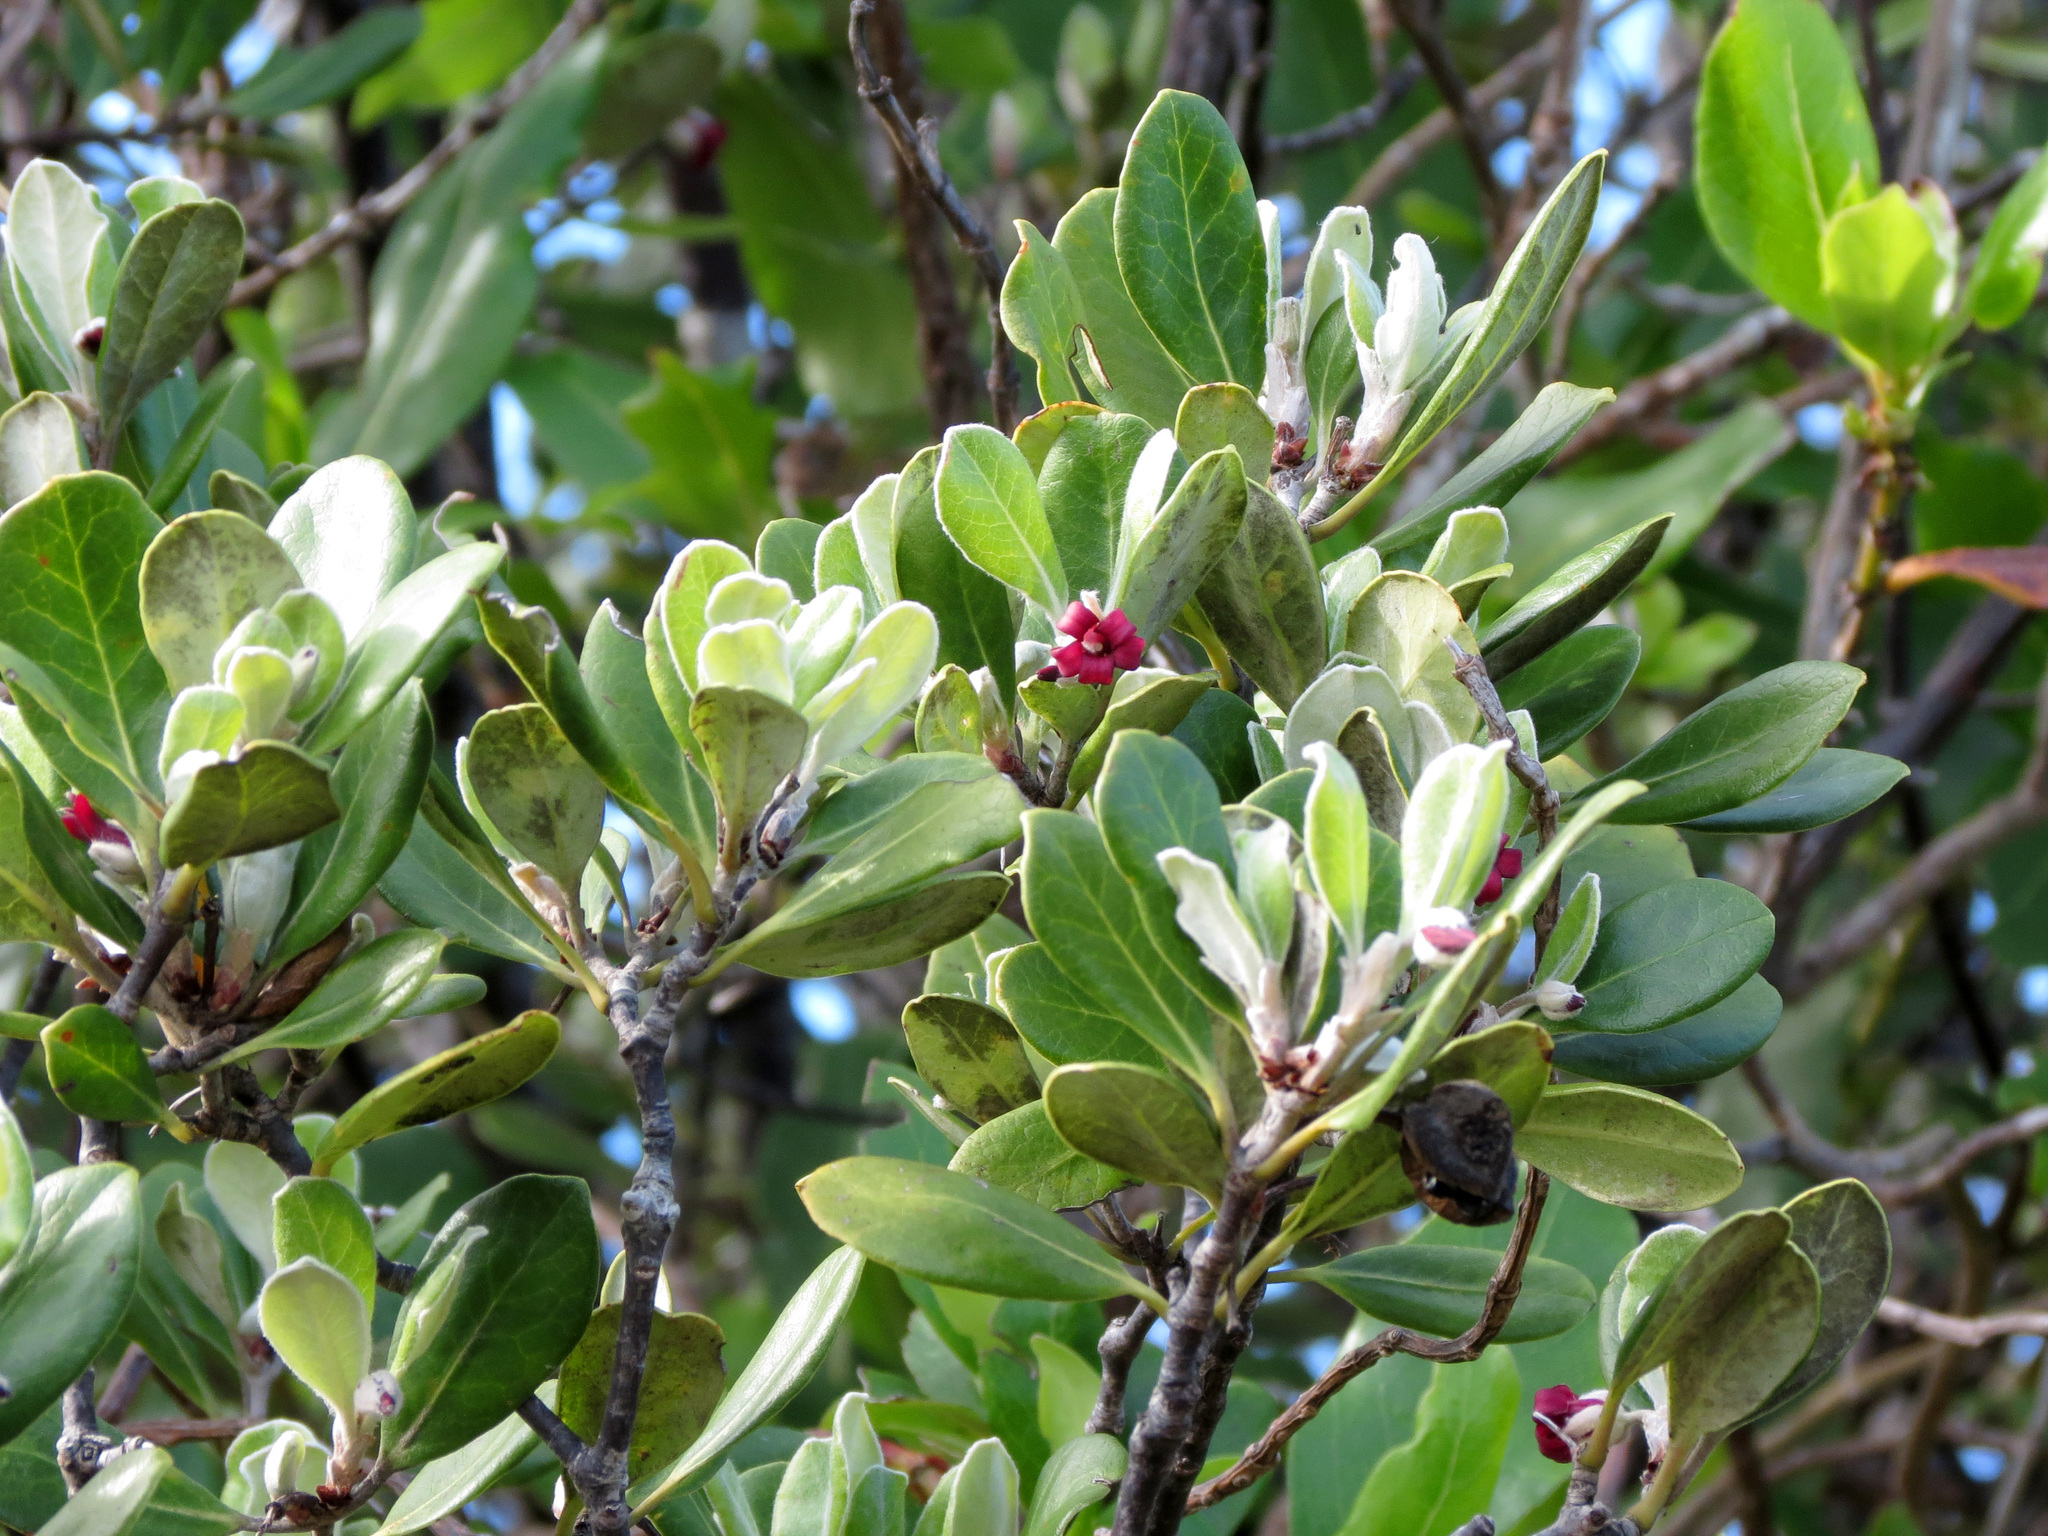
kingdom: Plantae
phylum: Tracheophyta
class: Magnoliopsida
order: Apiales
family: Pittosporaceae
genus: Pittosporum
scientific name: Pittosporum crassifolium
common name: Karo
